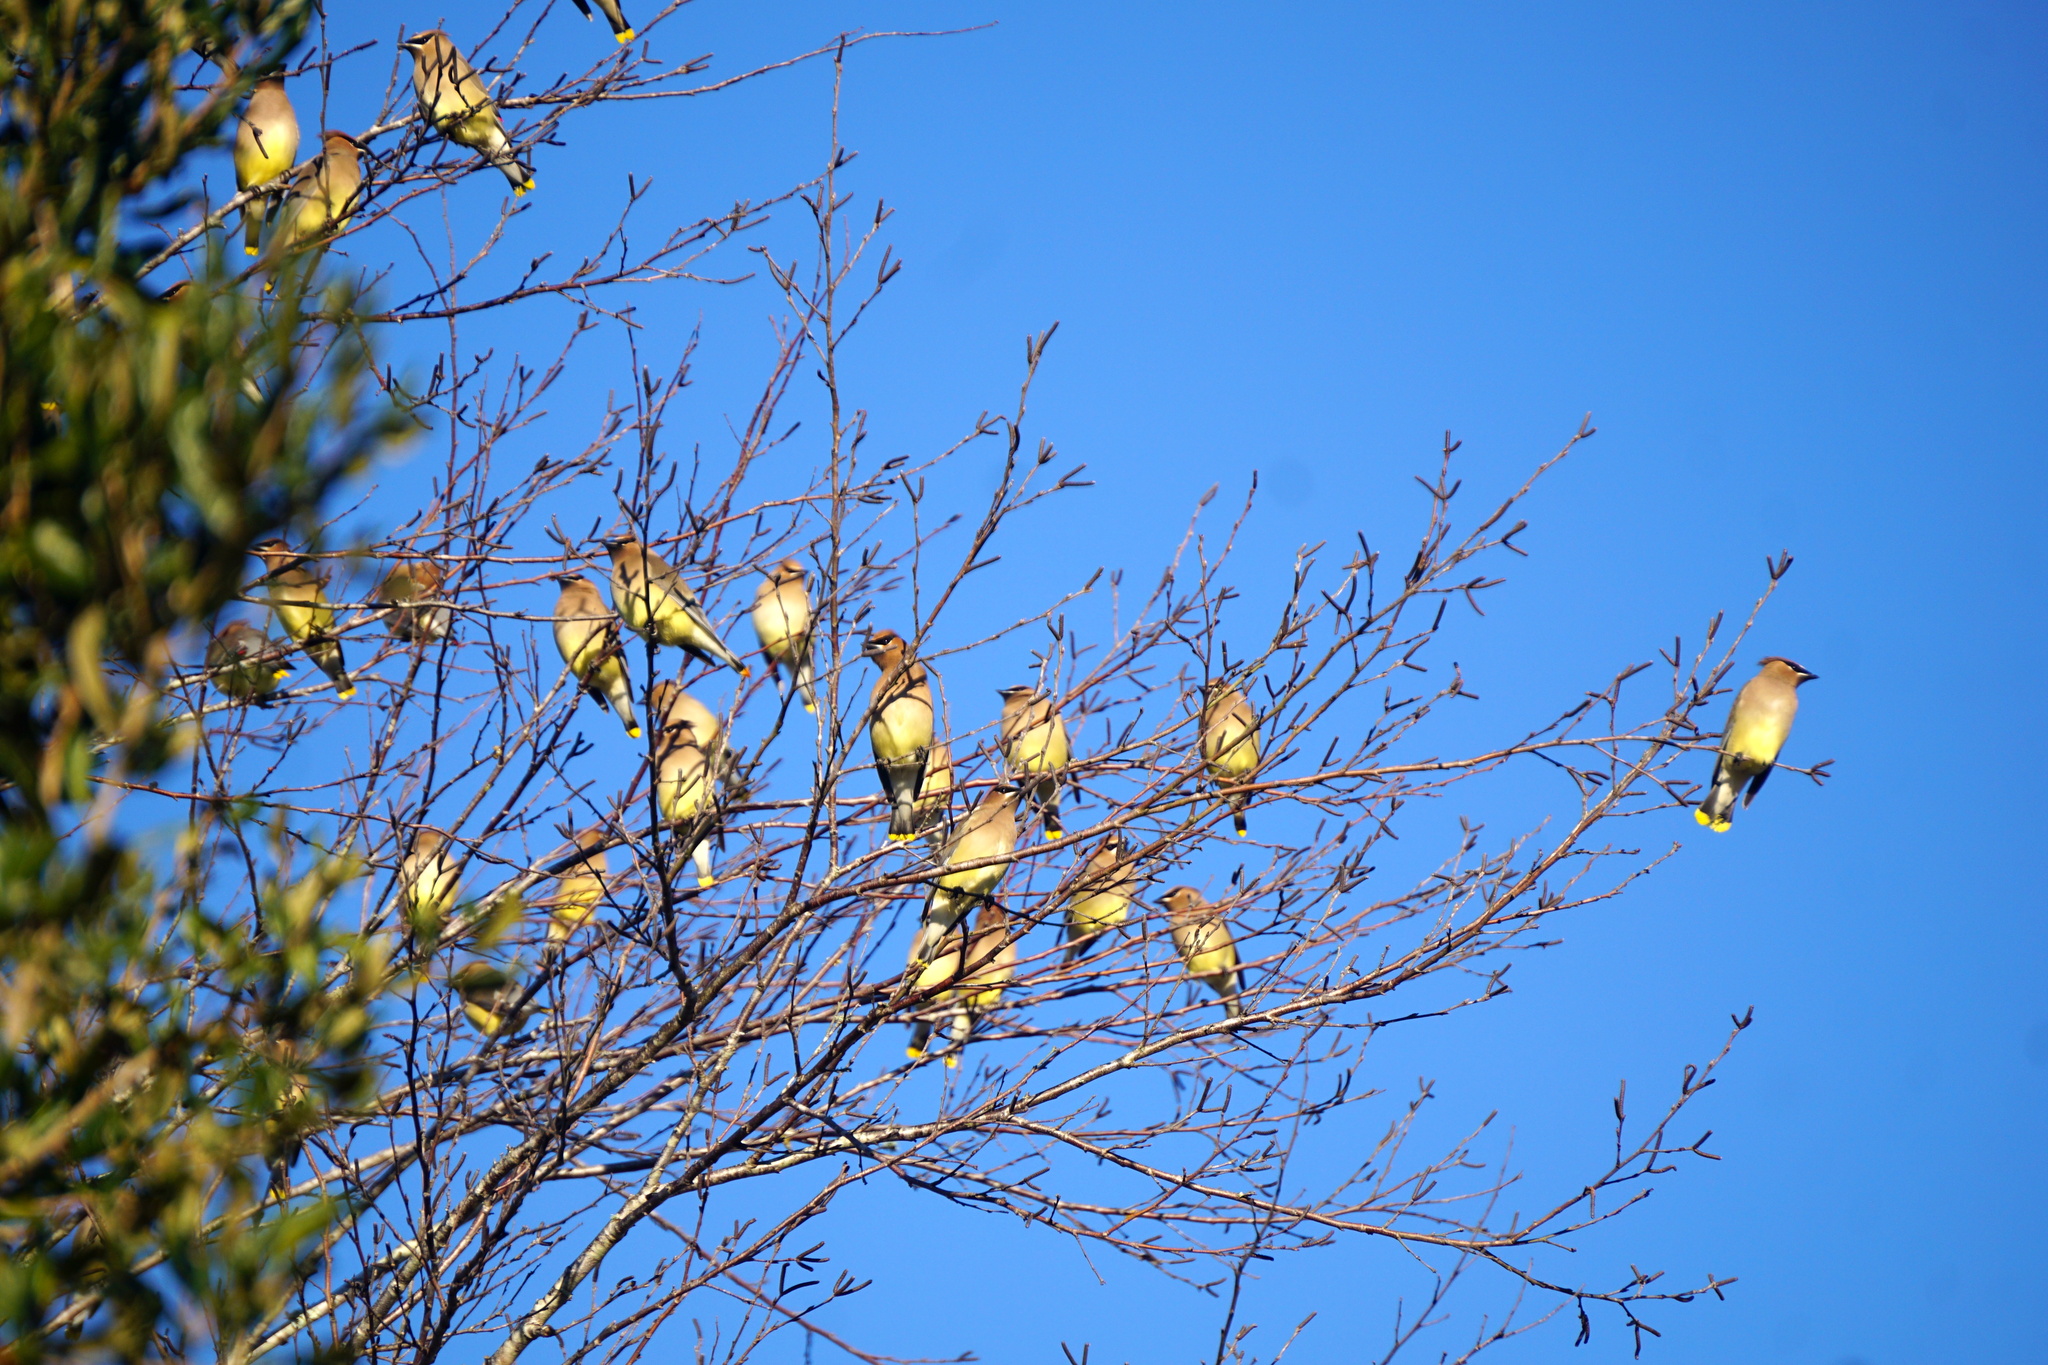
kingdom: Animalia
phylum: Chordata
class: Aves
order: Passeriformes
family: Bombycillidae
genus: Bombycilla
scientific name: Bombycilla cedrorum
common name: Cedar waxwing
